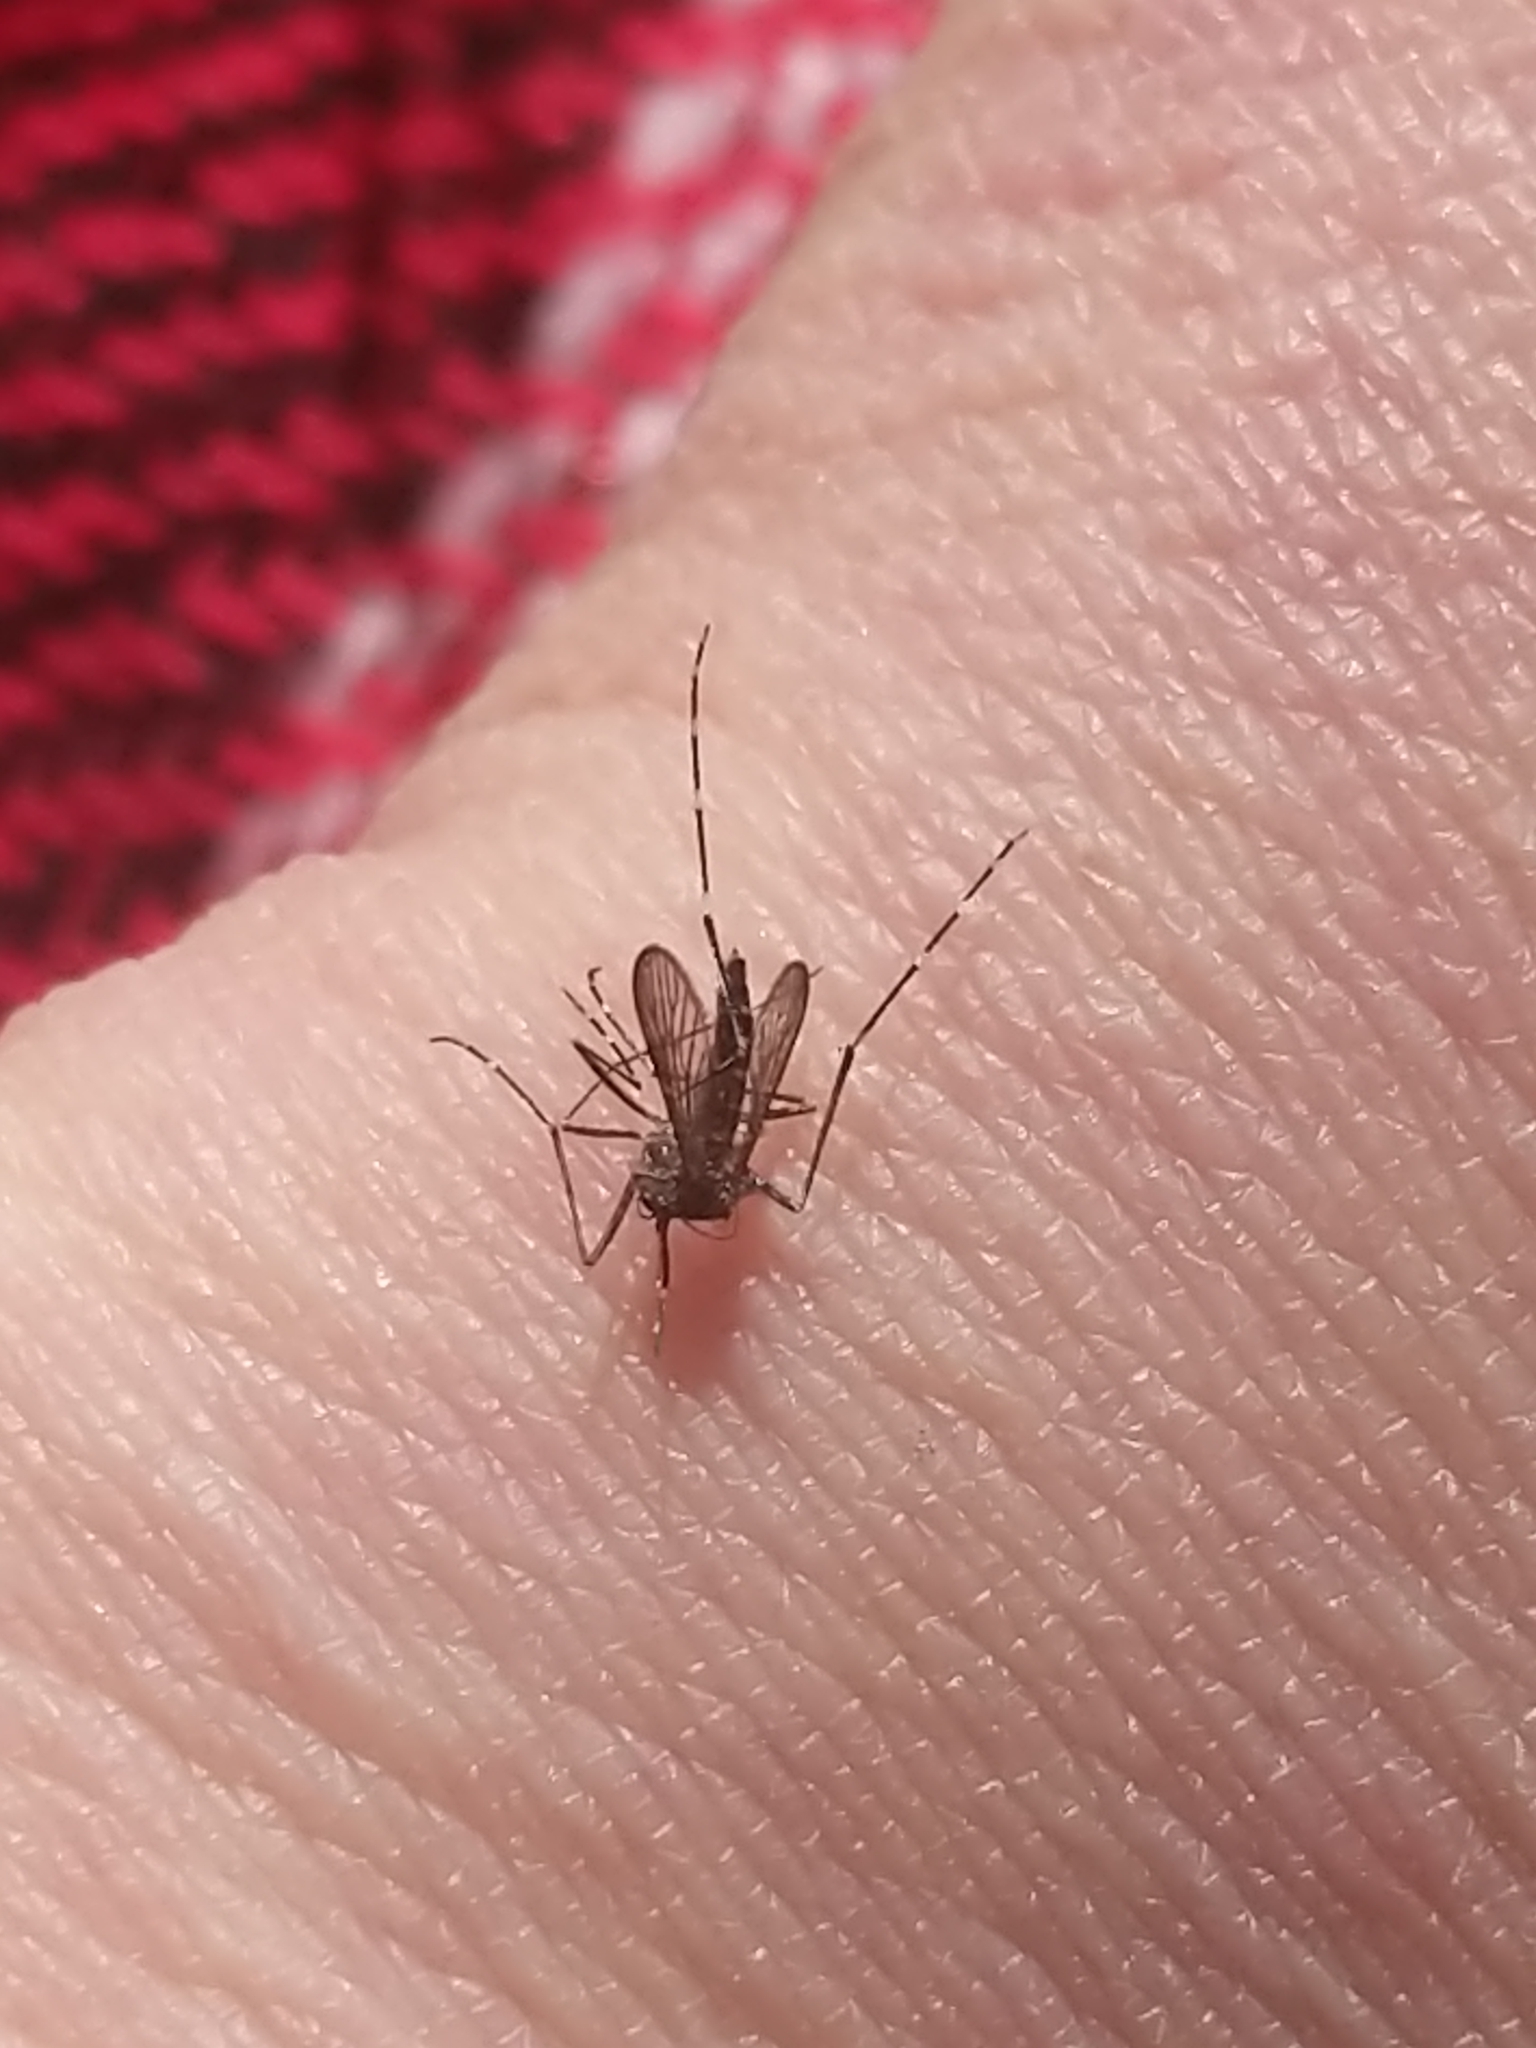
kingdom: Animalia
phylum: Arthropoda
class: Insecta
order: Diptera
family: Culicidae
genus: Aedes
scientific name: Aedes notoscriptus
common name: Australian backyard mosquito
